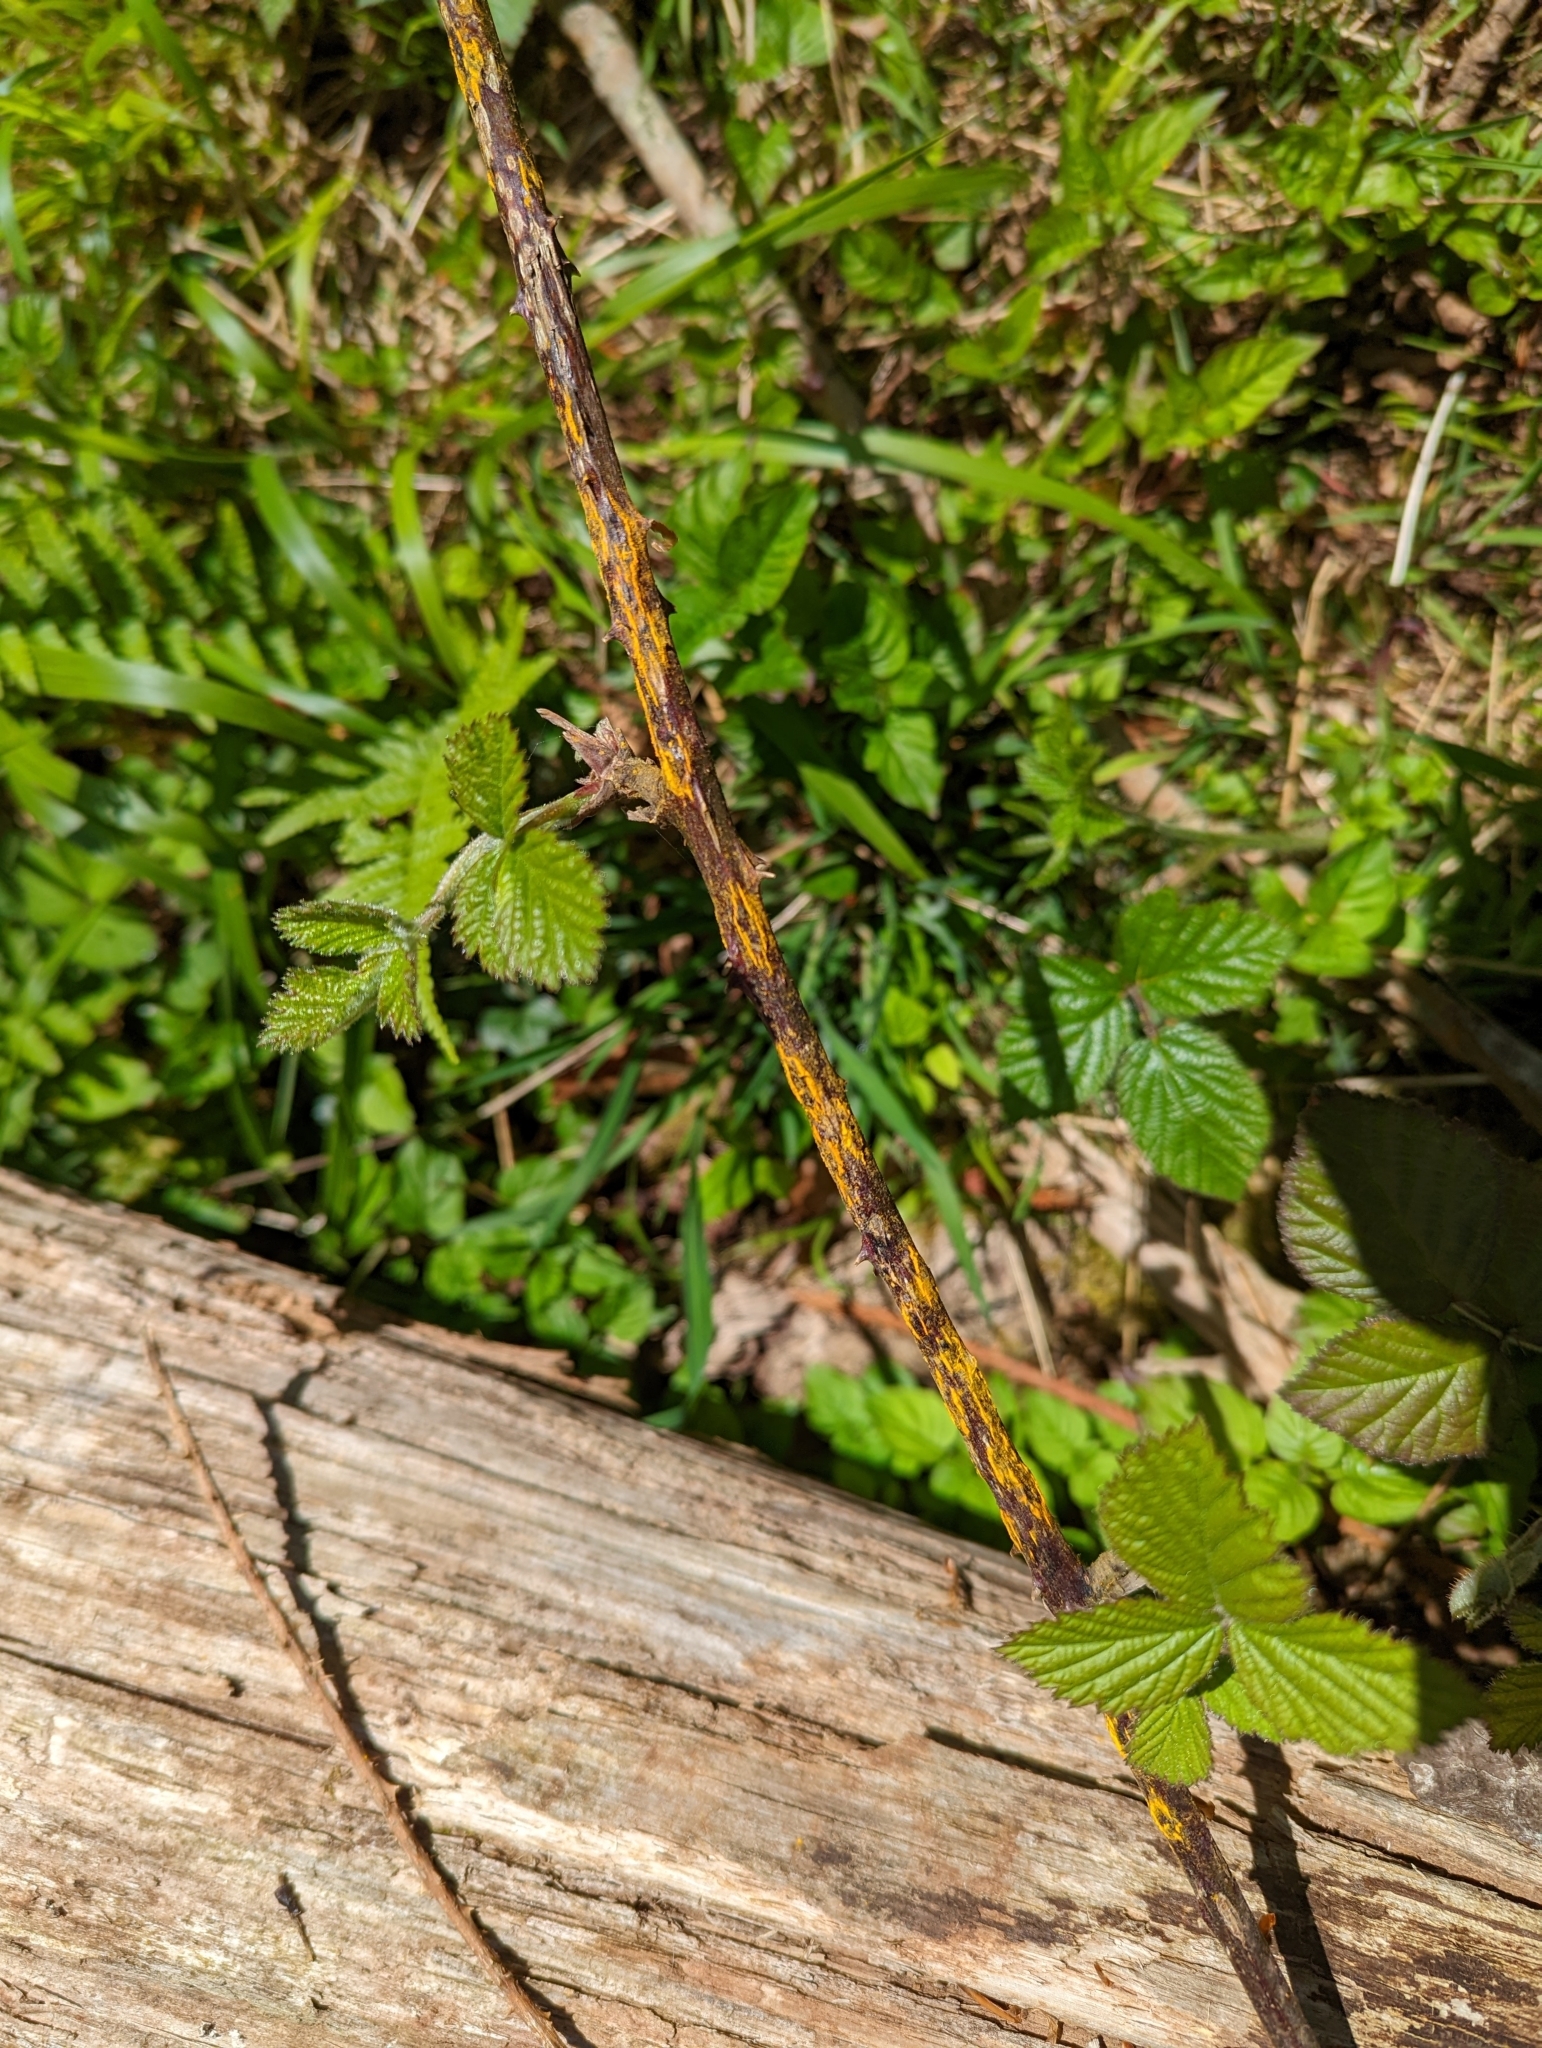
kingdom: Fungi
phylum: Basidiomycota
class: Pucciniomycetes
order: Pucciniales
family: Phragmidiaceae
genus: Kuehneola
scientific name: Kuehneola uredinis
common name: Bramble stem rust
